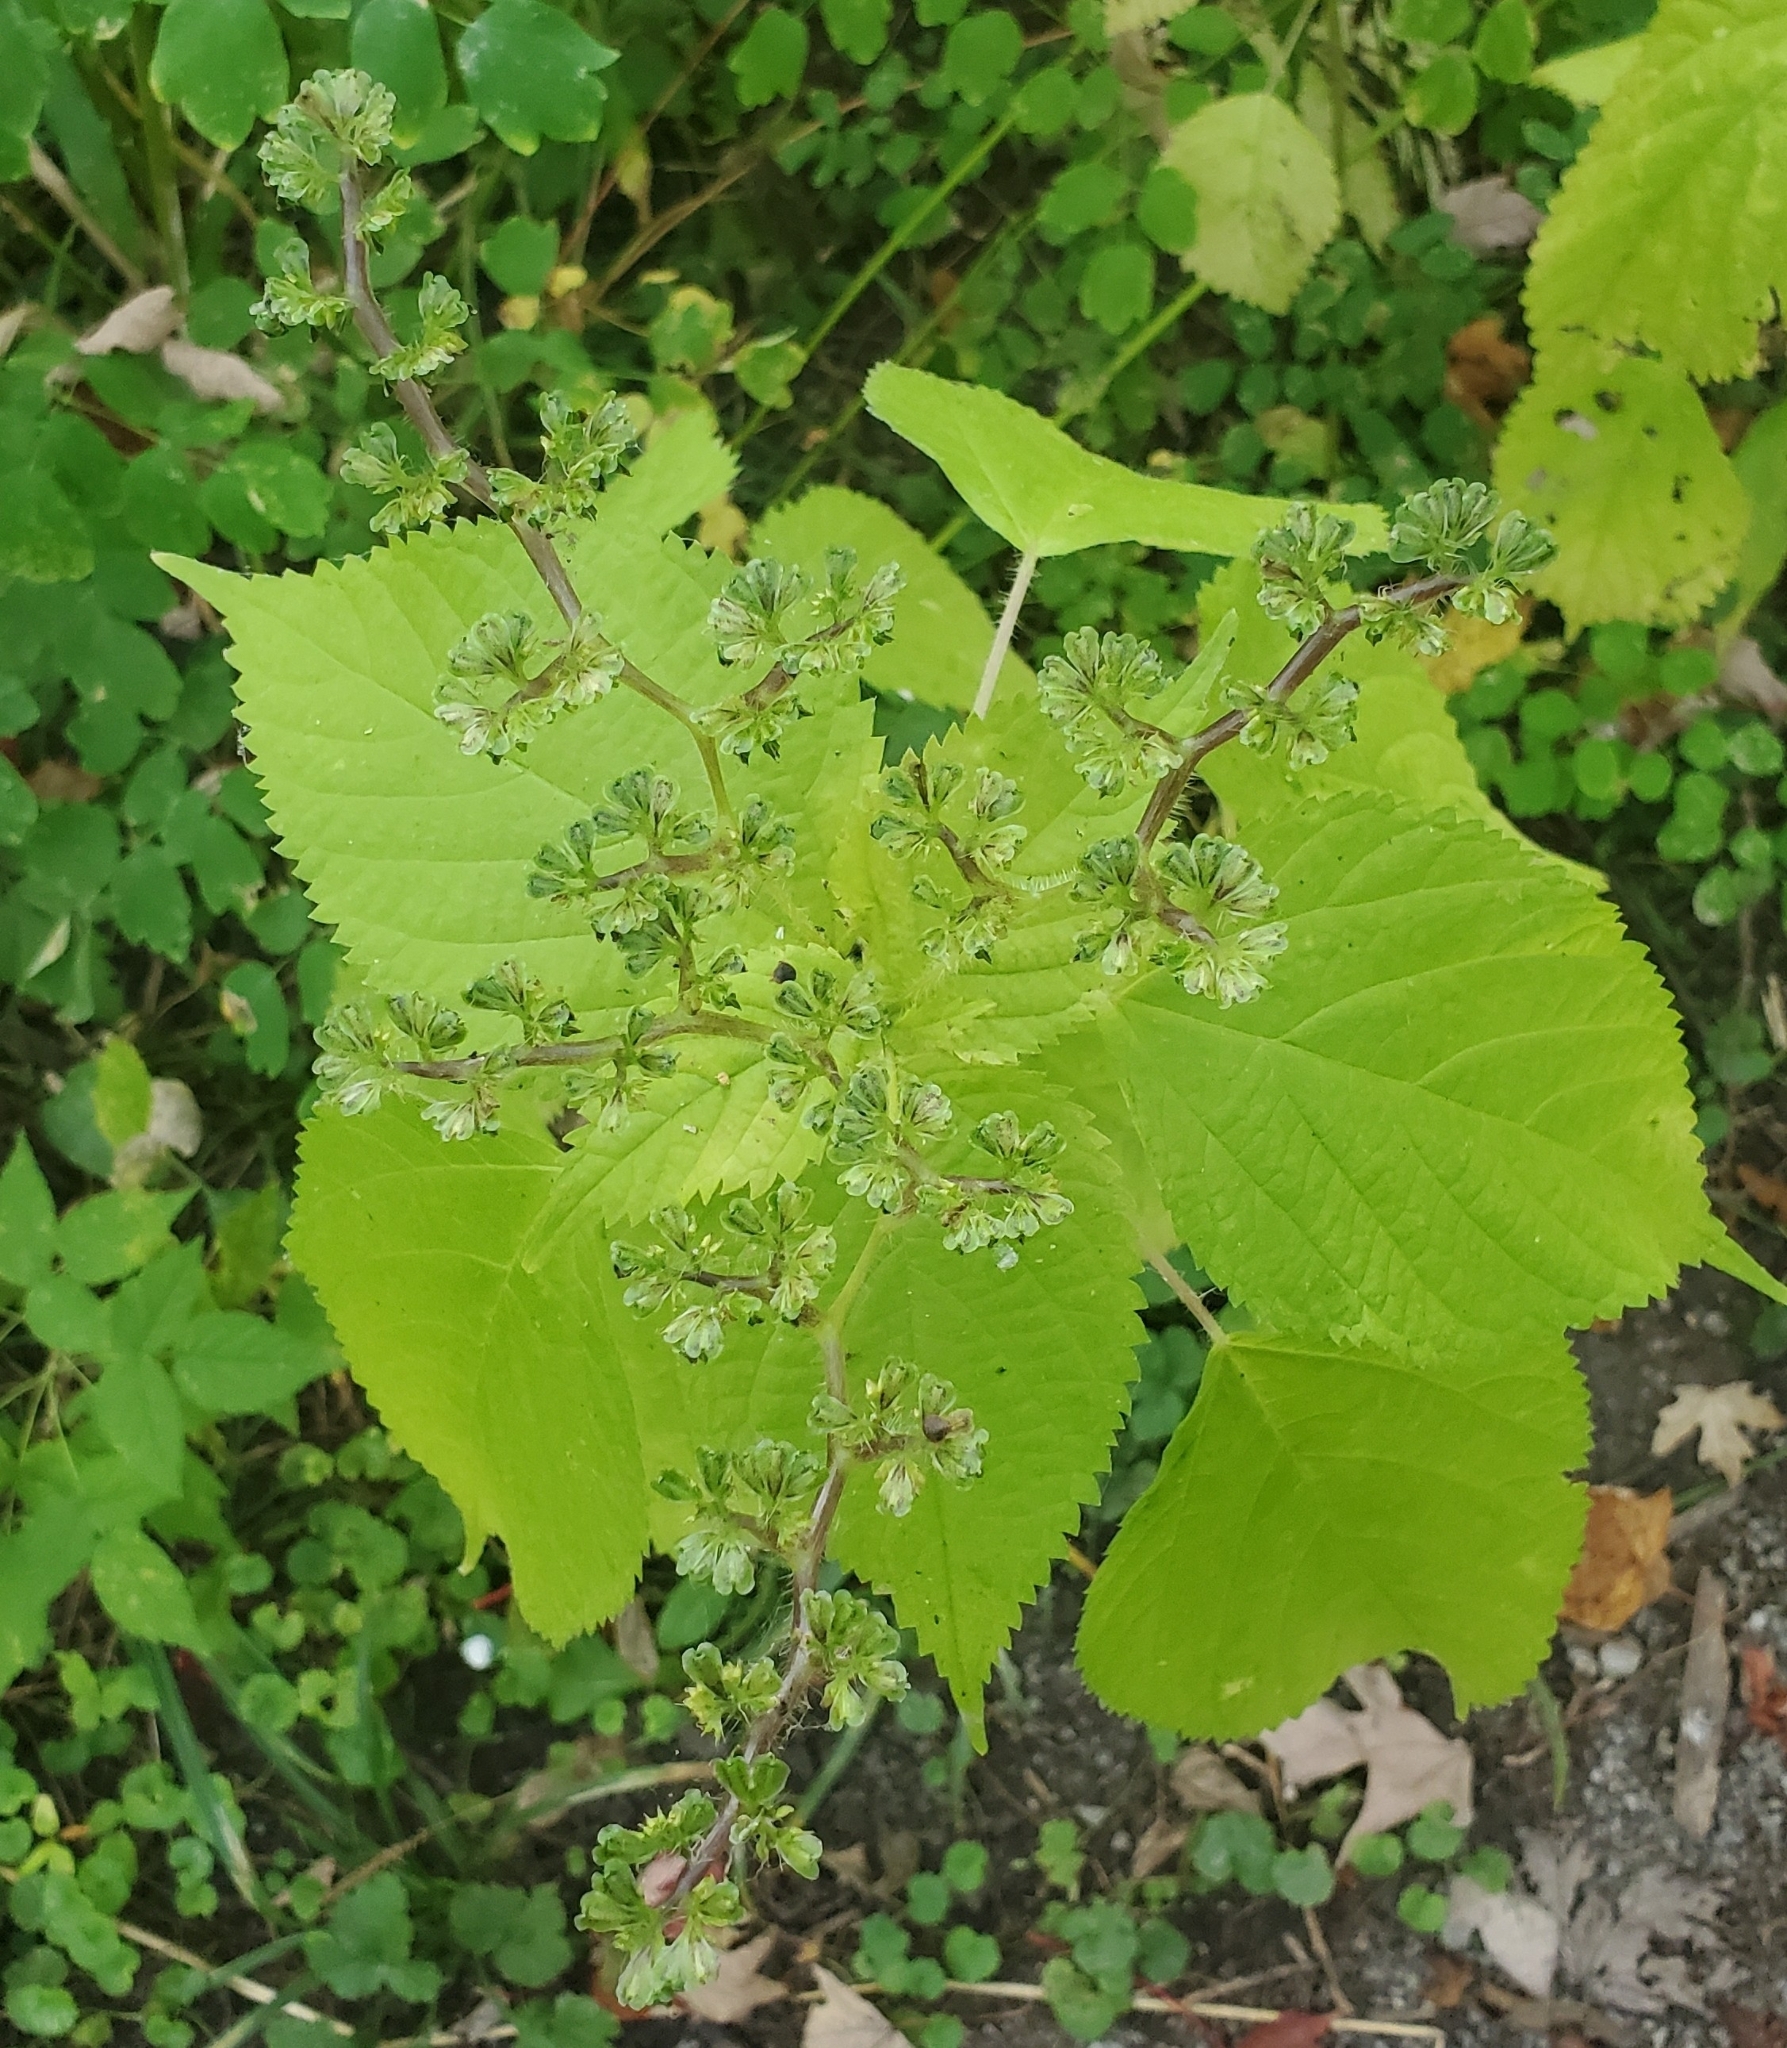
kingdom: Plantae
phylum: Tracheophyta
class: Magnoliopsida
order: Rosales
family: Urticaceae
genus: Laportea
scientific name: Laportea canadensis
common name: Canada nettle
